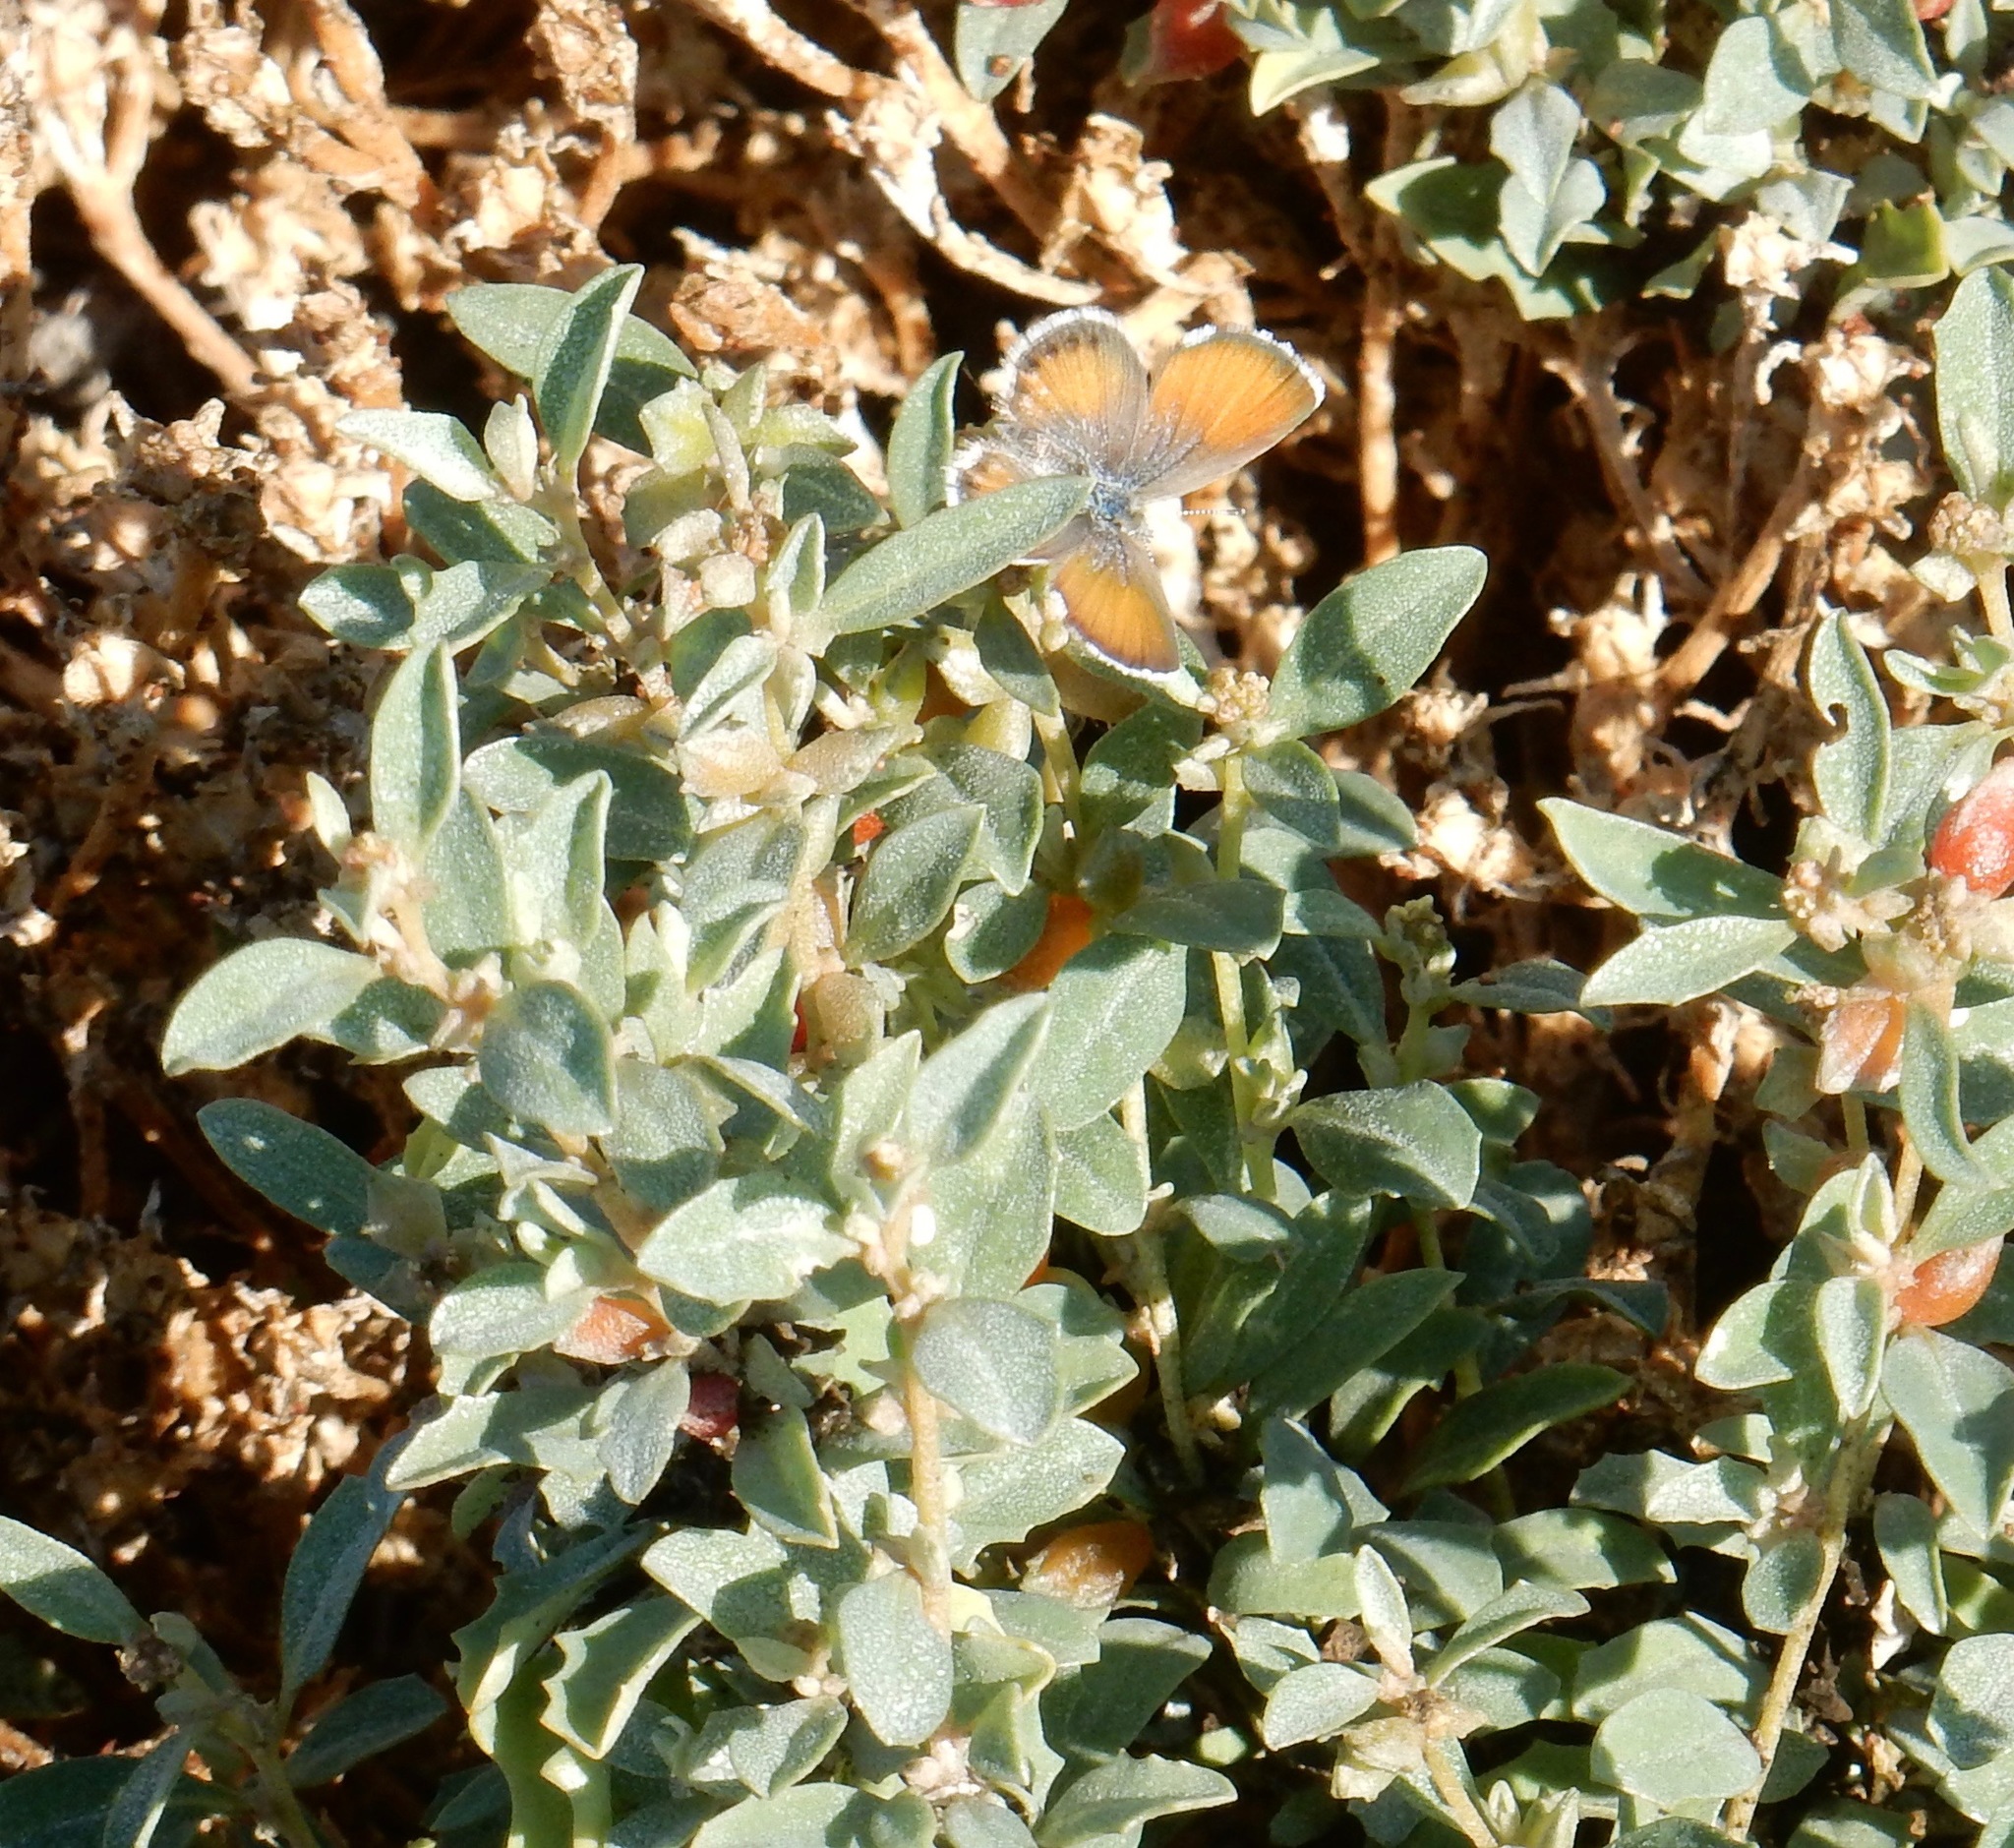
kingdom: Animalia
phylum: Arthropoda
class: Insecta
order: Lepidoptera
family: Lycaenidae
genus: Brephidium
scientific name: Brephidium exilis
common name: Pygmy blue
